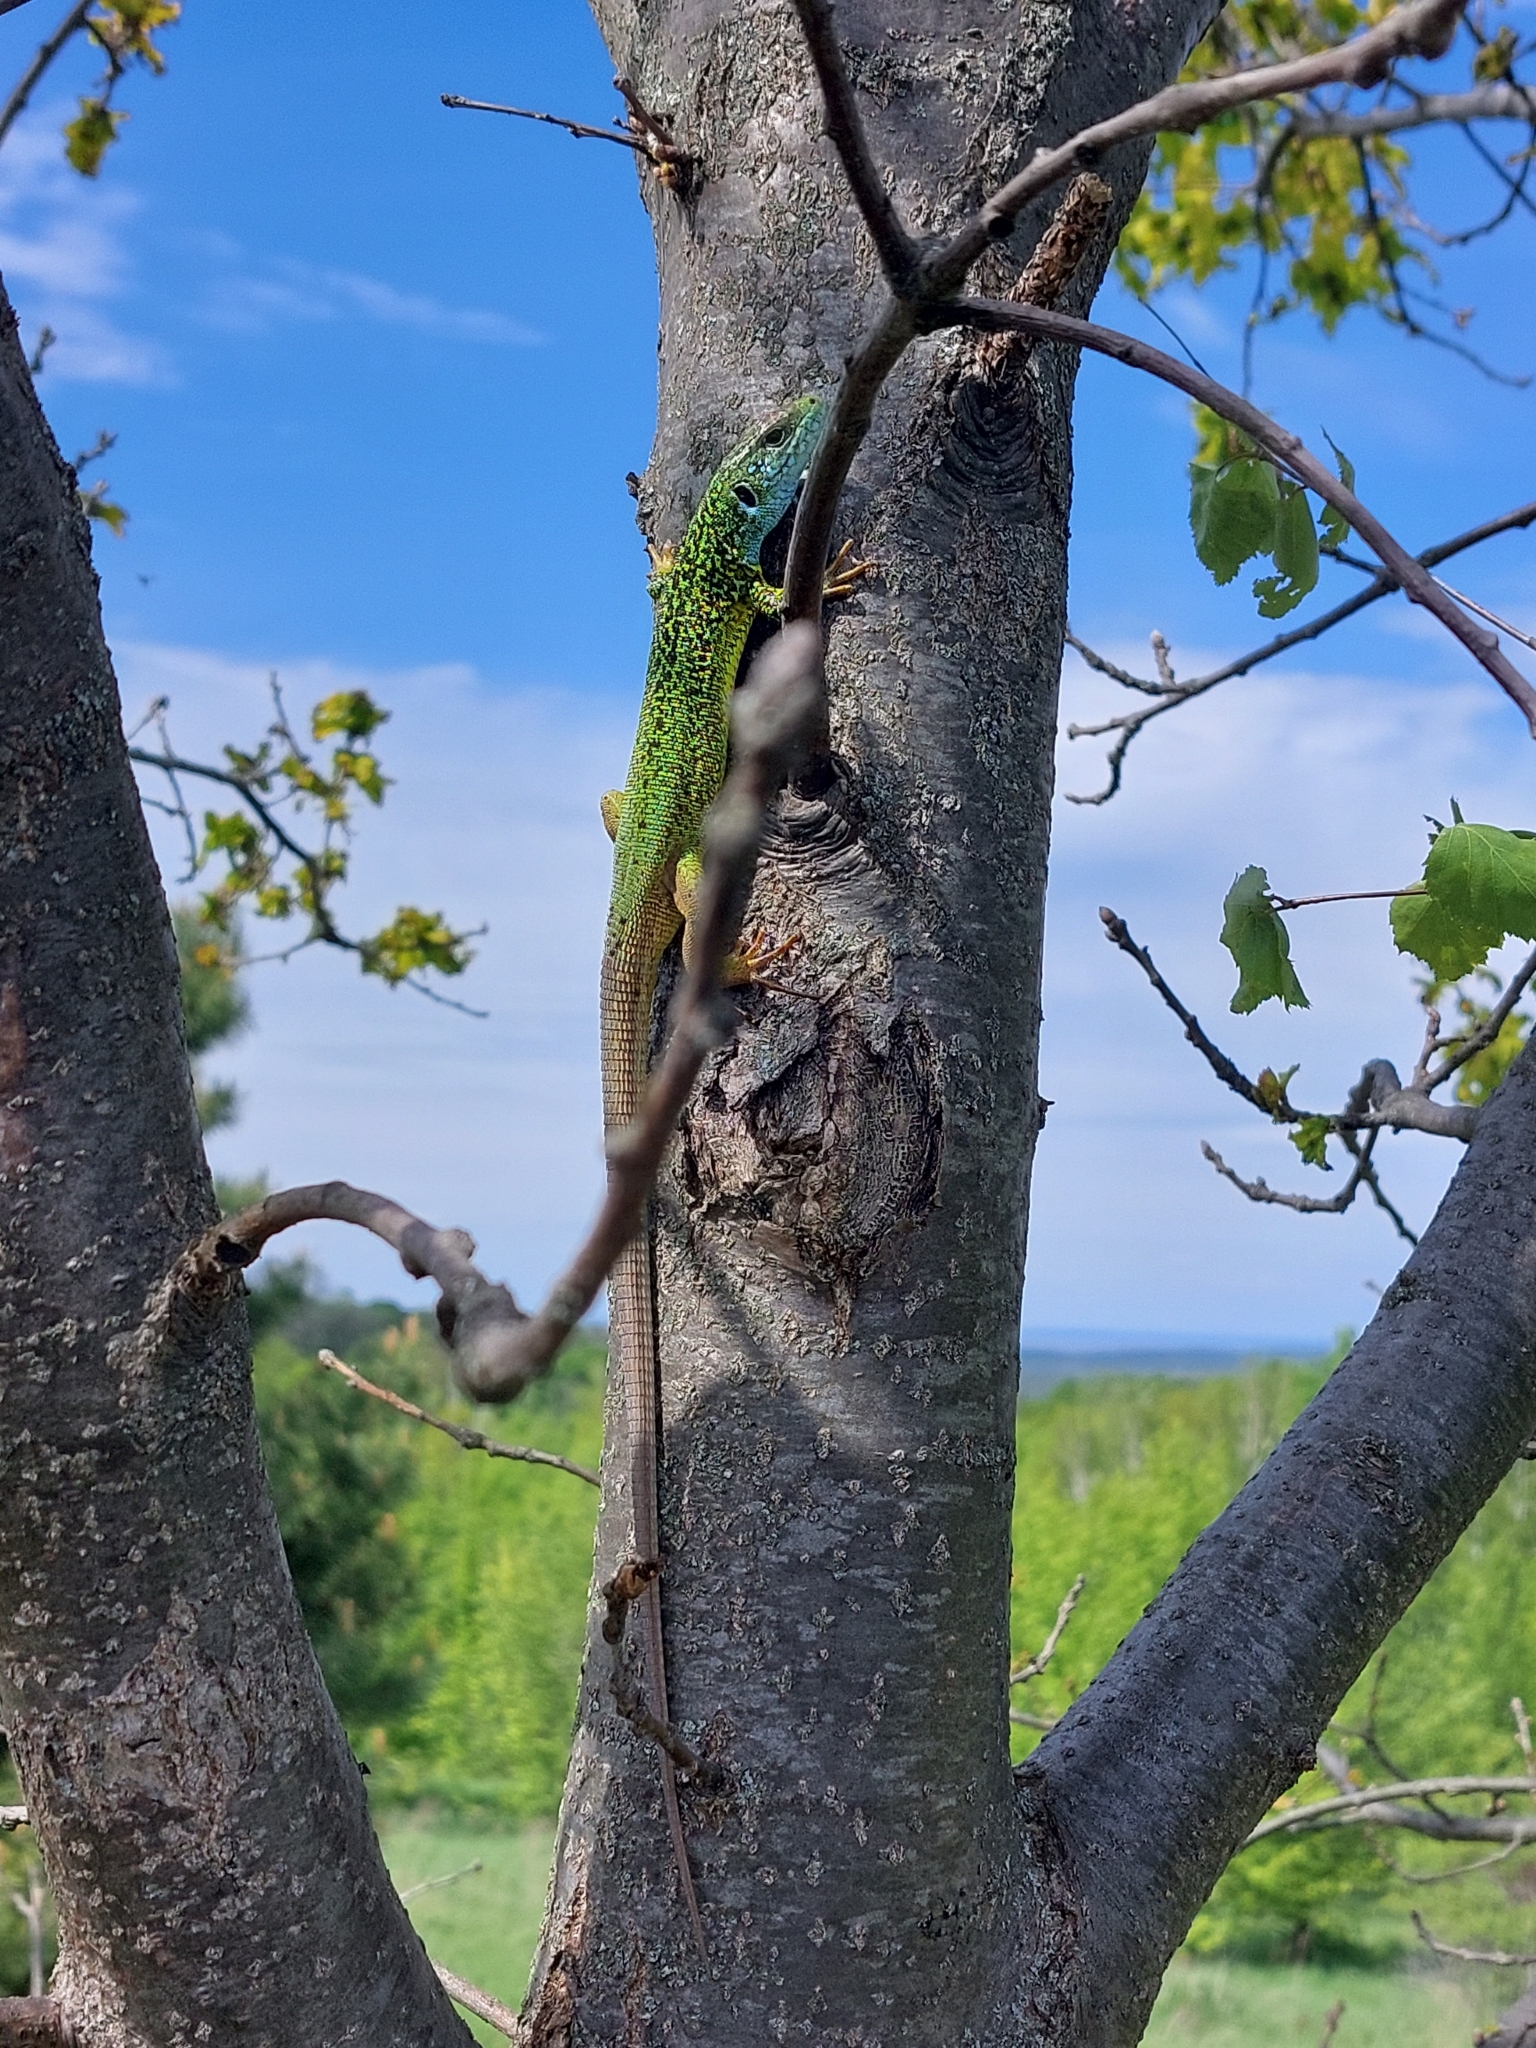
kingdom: Animalia
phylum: Chordata
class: Squamata
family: Lacertidae
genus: Lacerta
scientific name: Lacerta viridis
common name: European green lizard
